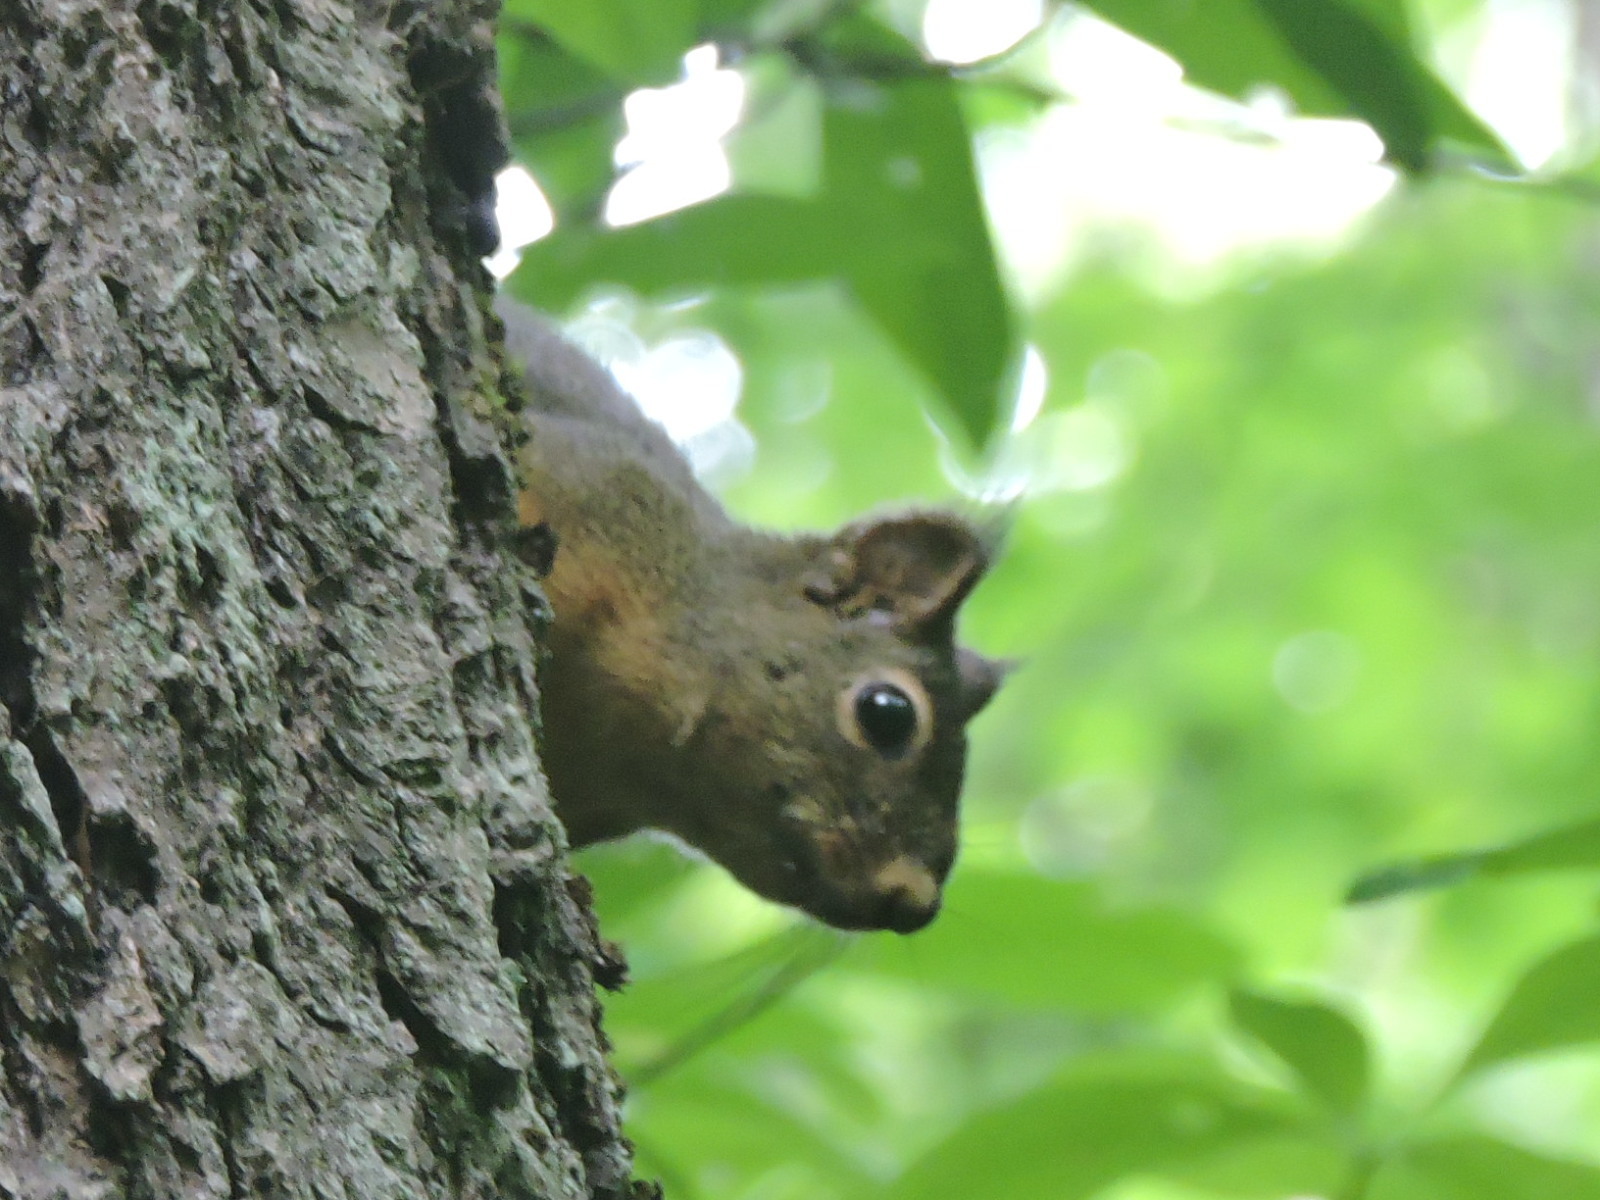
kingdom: Animalia
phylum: Chordata
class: Mammalia
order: Rodentia
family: Sciuridae
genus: Tamiasciurus
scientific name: Tamiasciurus douglasii
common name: Douglas's squirrel
